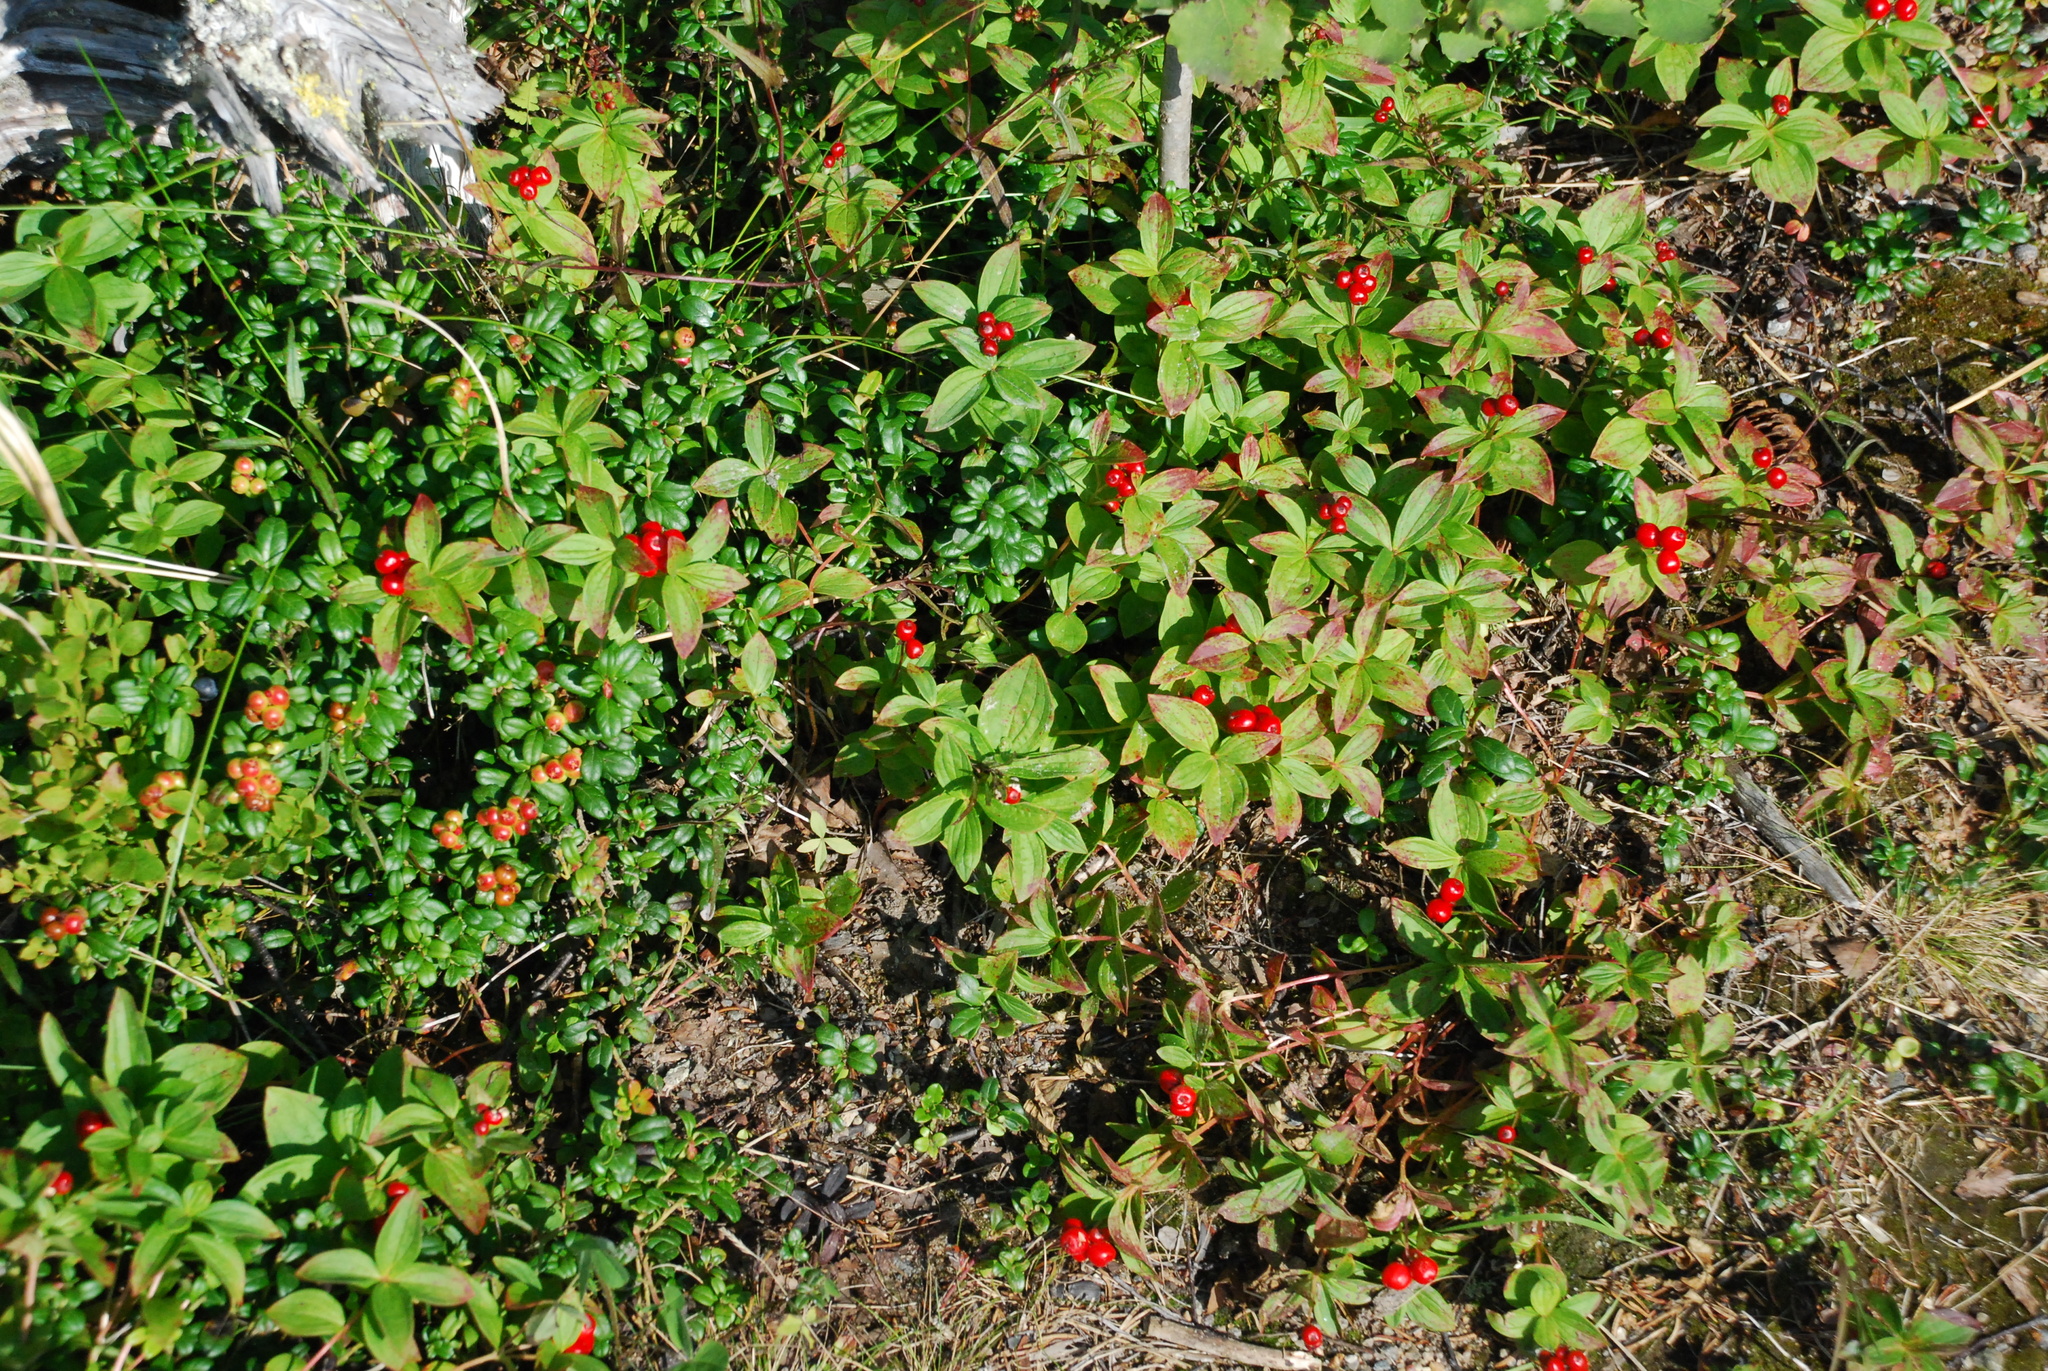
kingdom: Plantae
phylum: Tracheophyta
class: Magnoliopsida
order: Cornales
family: Cornaceae
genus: Cornus
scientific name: Cornus suecica
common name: Dwarf cornel
